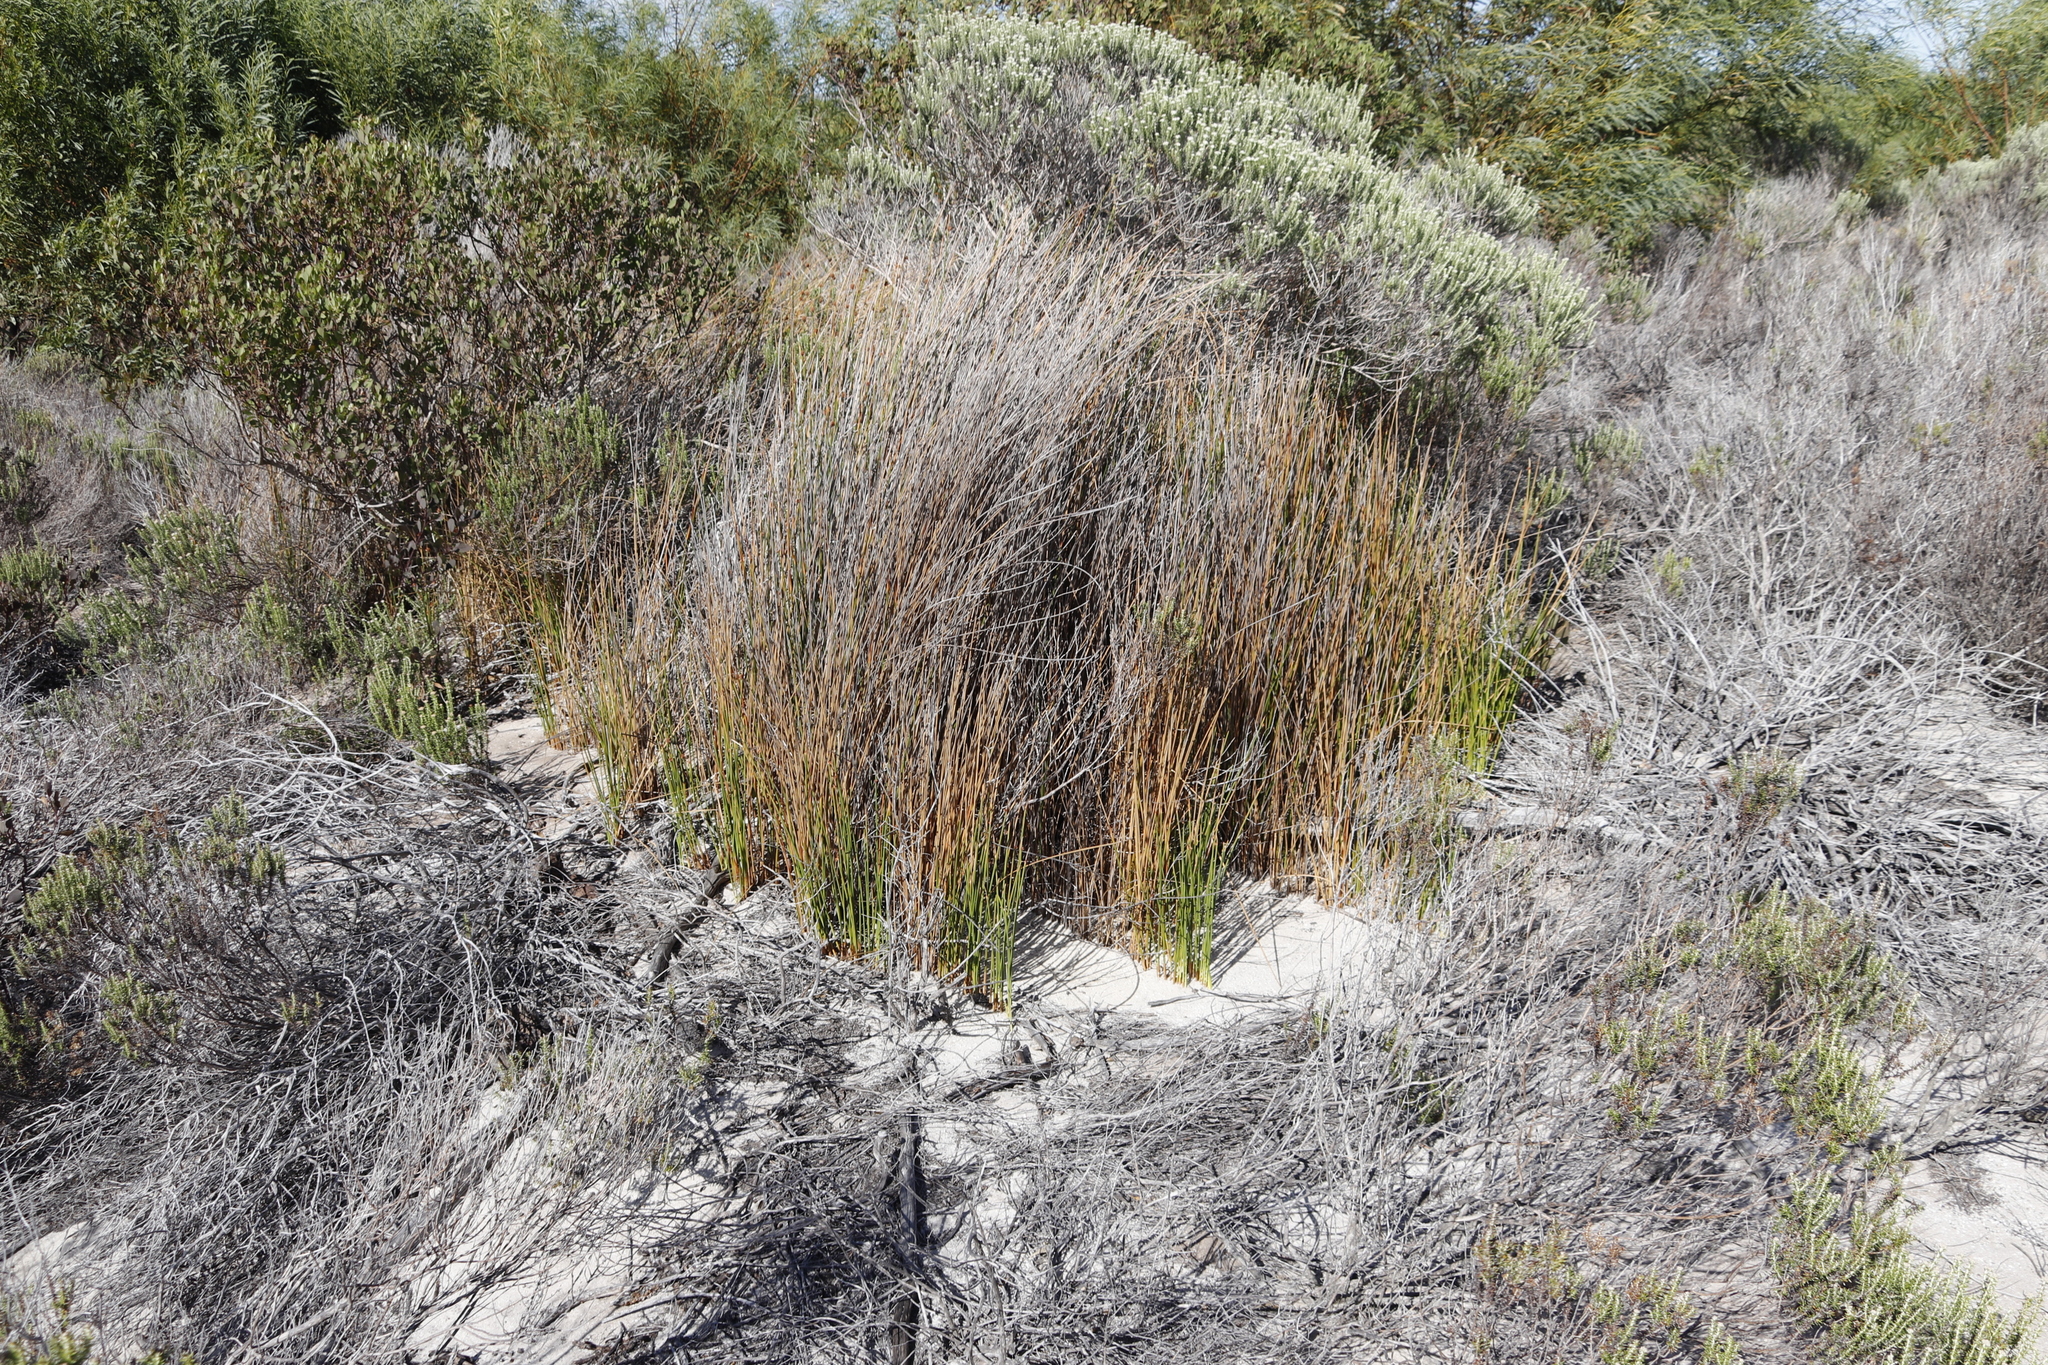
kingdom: Plantae
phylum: Tracheophyta
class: Liliopsida
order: Poales
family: Cyperaceae
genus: Ficinia
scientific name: Ficinia nodosa
